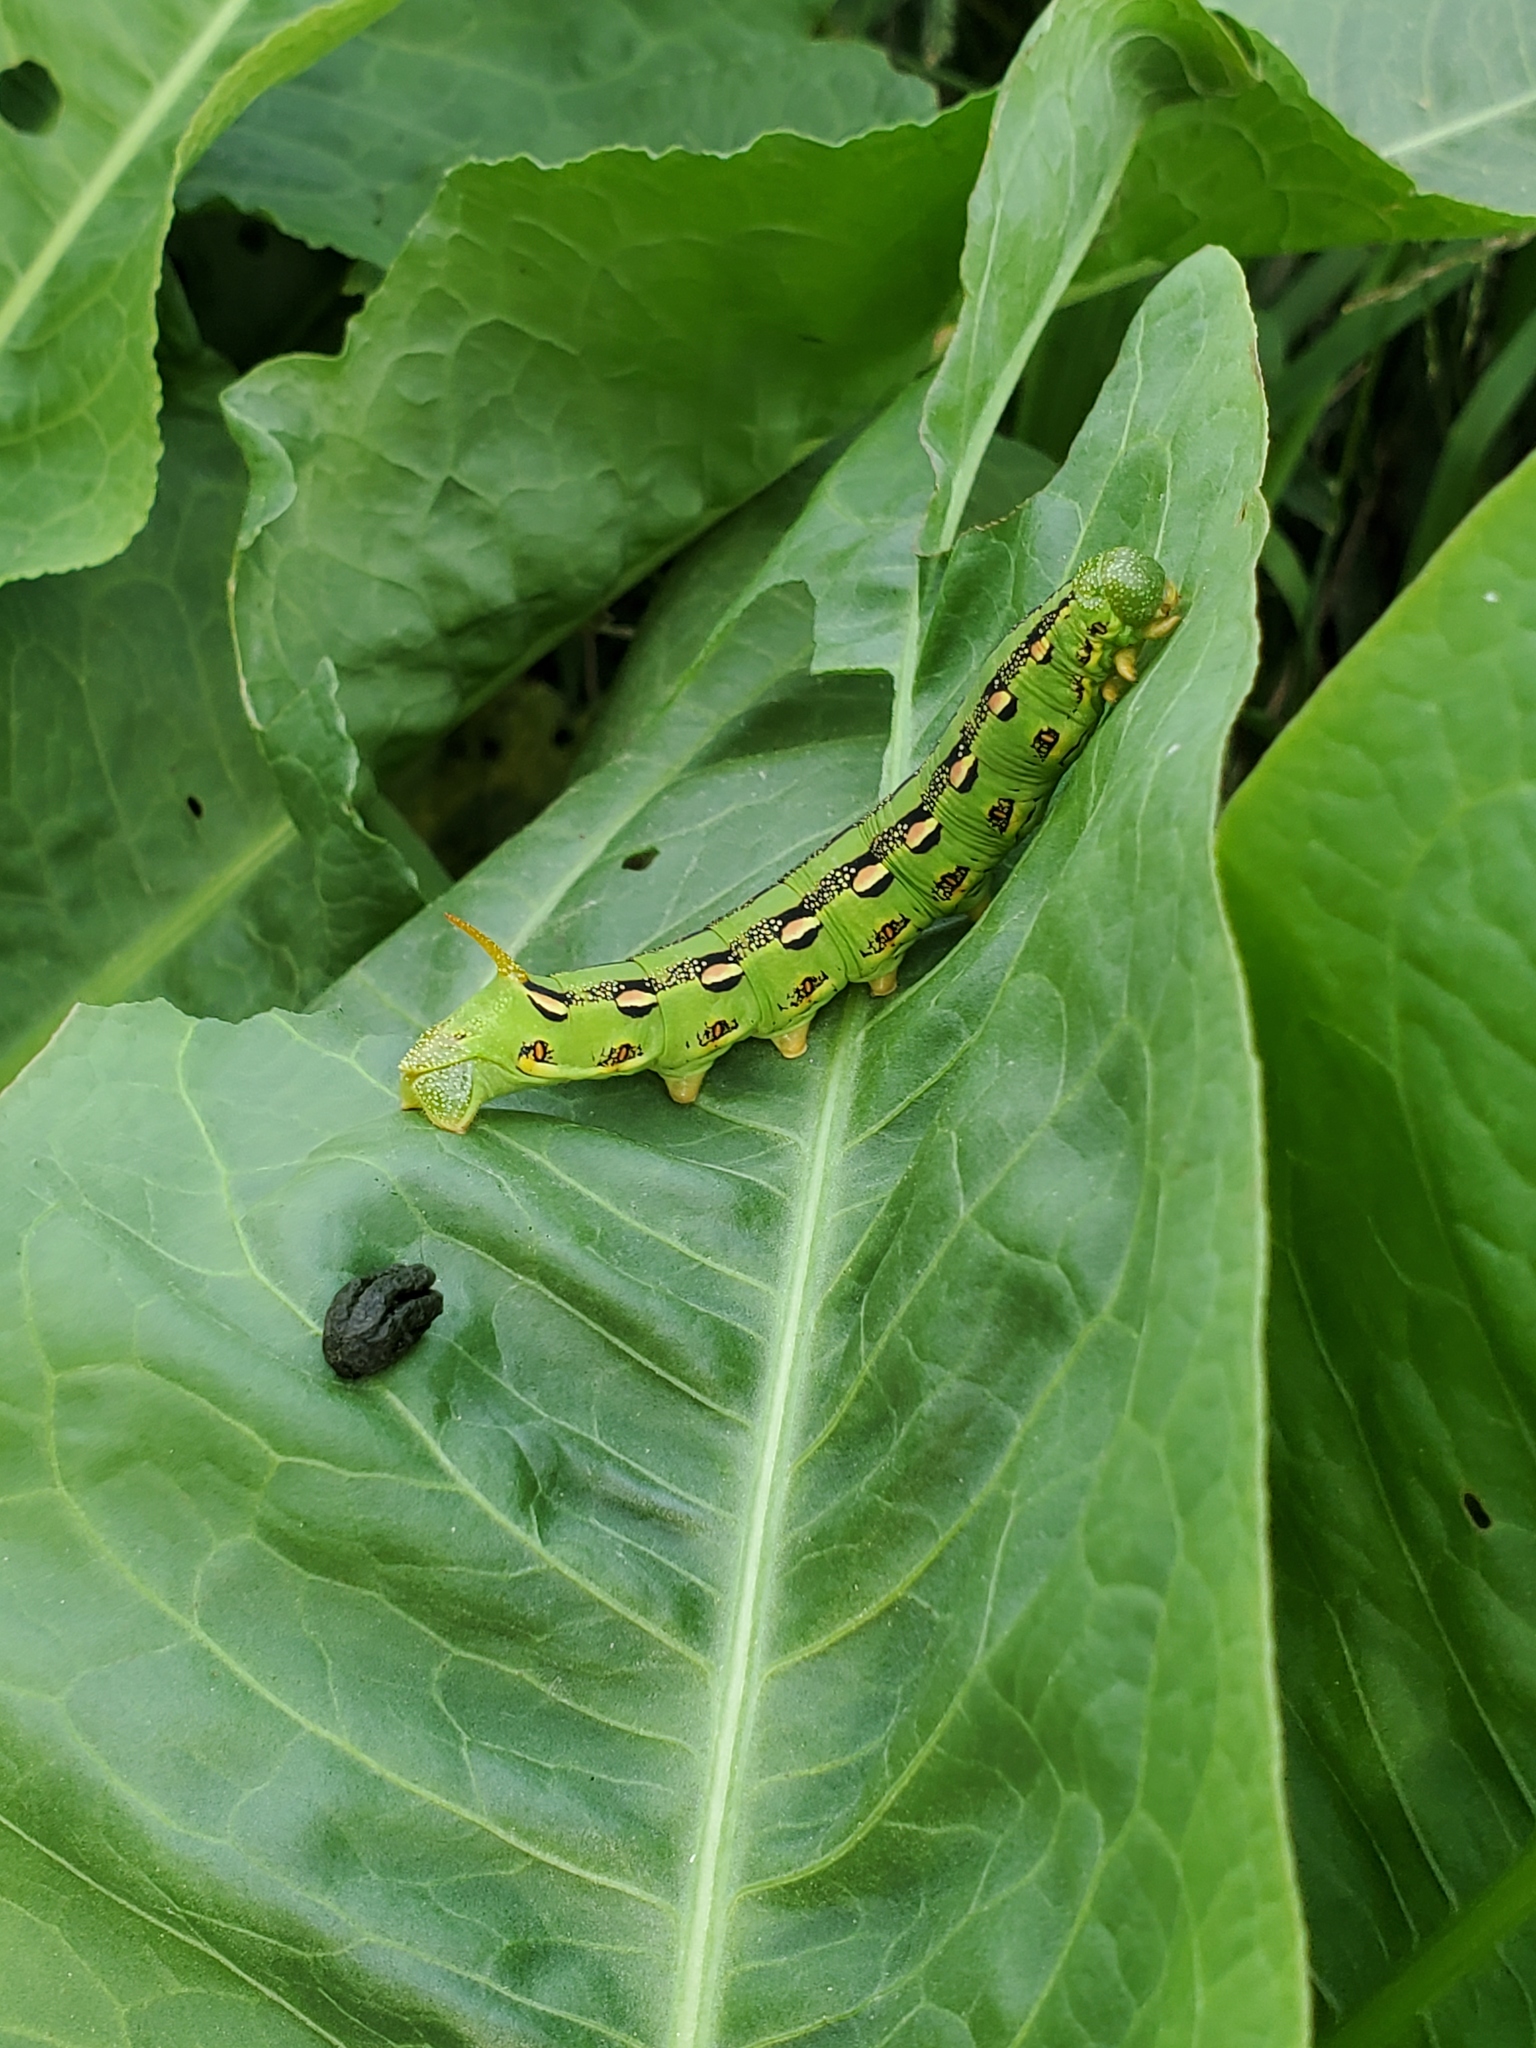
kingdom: Animalia
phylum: Arthropoda
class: Insecta
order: Lepidoptera
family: Sphingidae
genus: Hyles
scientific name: Hyles lineata
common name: White-lined sphinx
